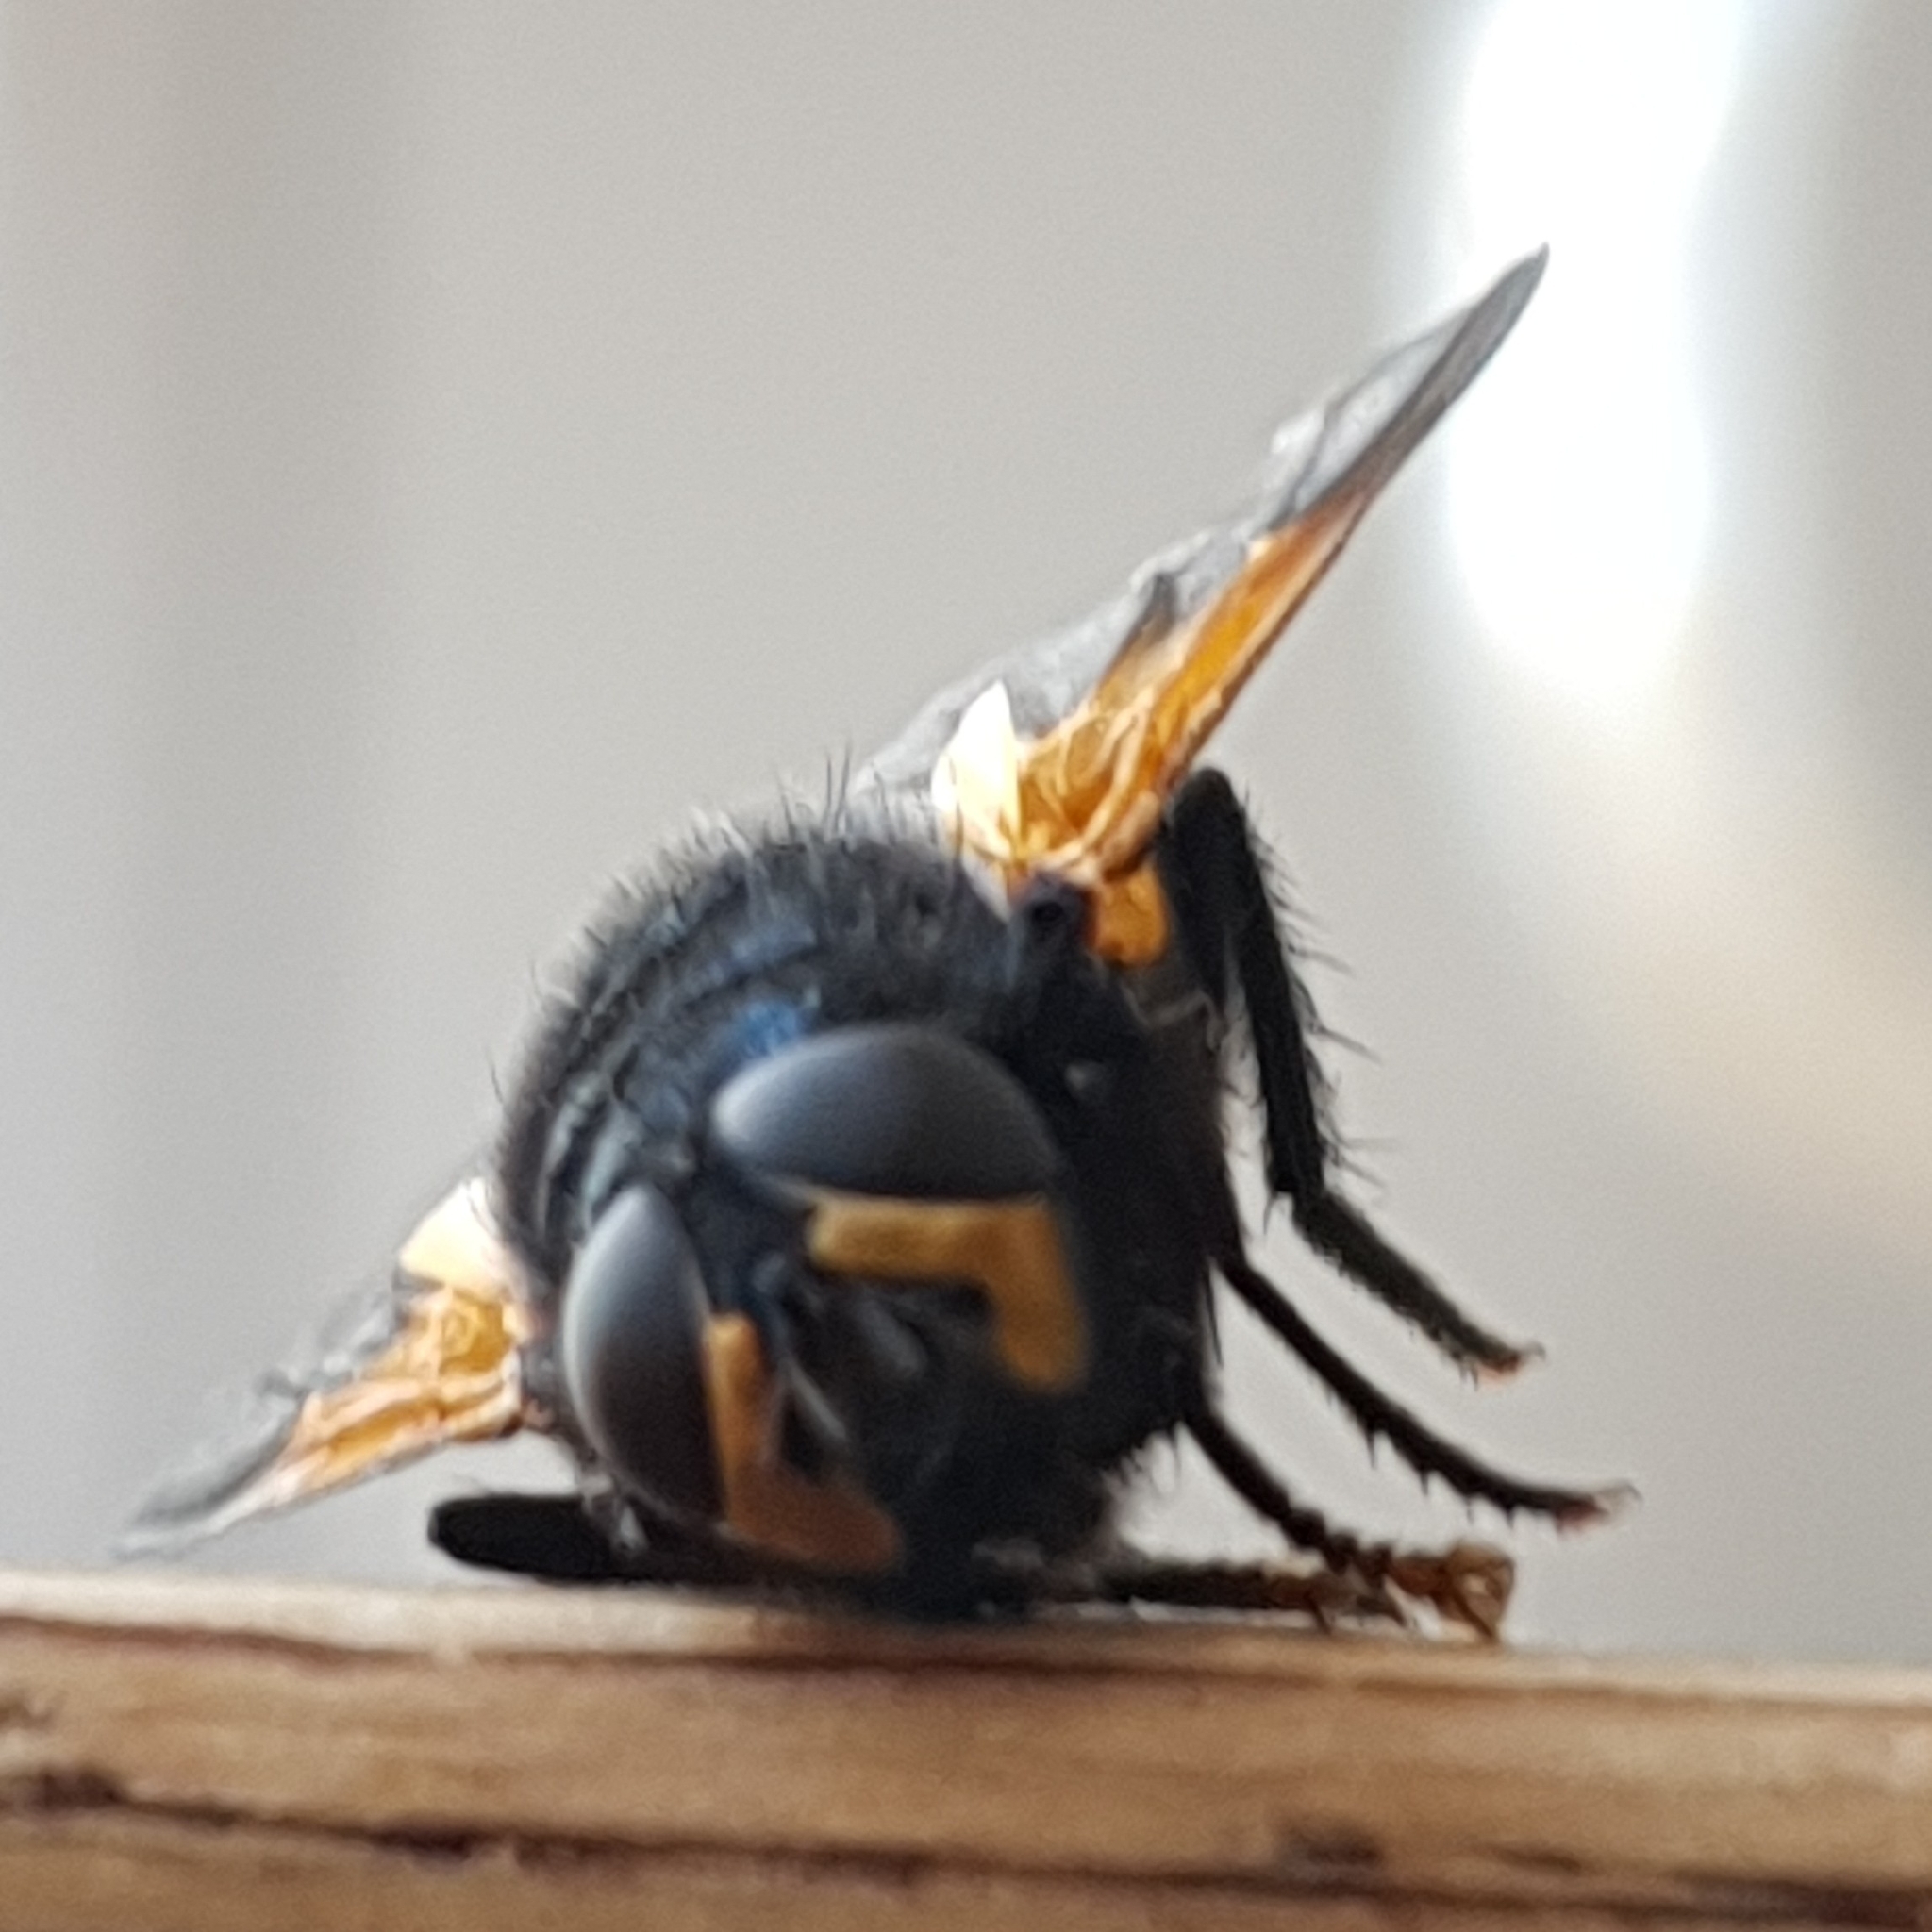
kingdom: Animalia
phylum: Arthropoda
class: Insecta
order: Diptera
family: Muscidae
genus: Mesembrina
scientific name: Mesembrina meridiana
